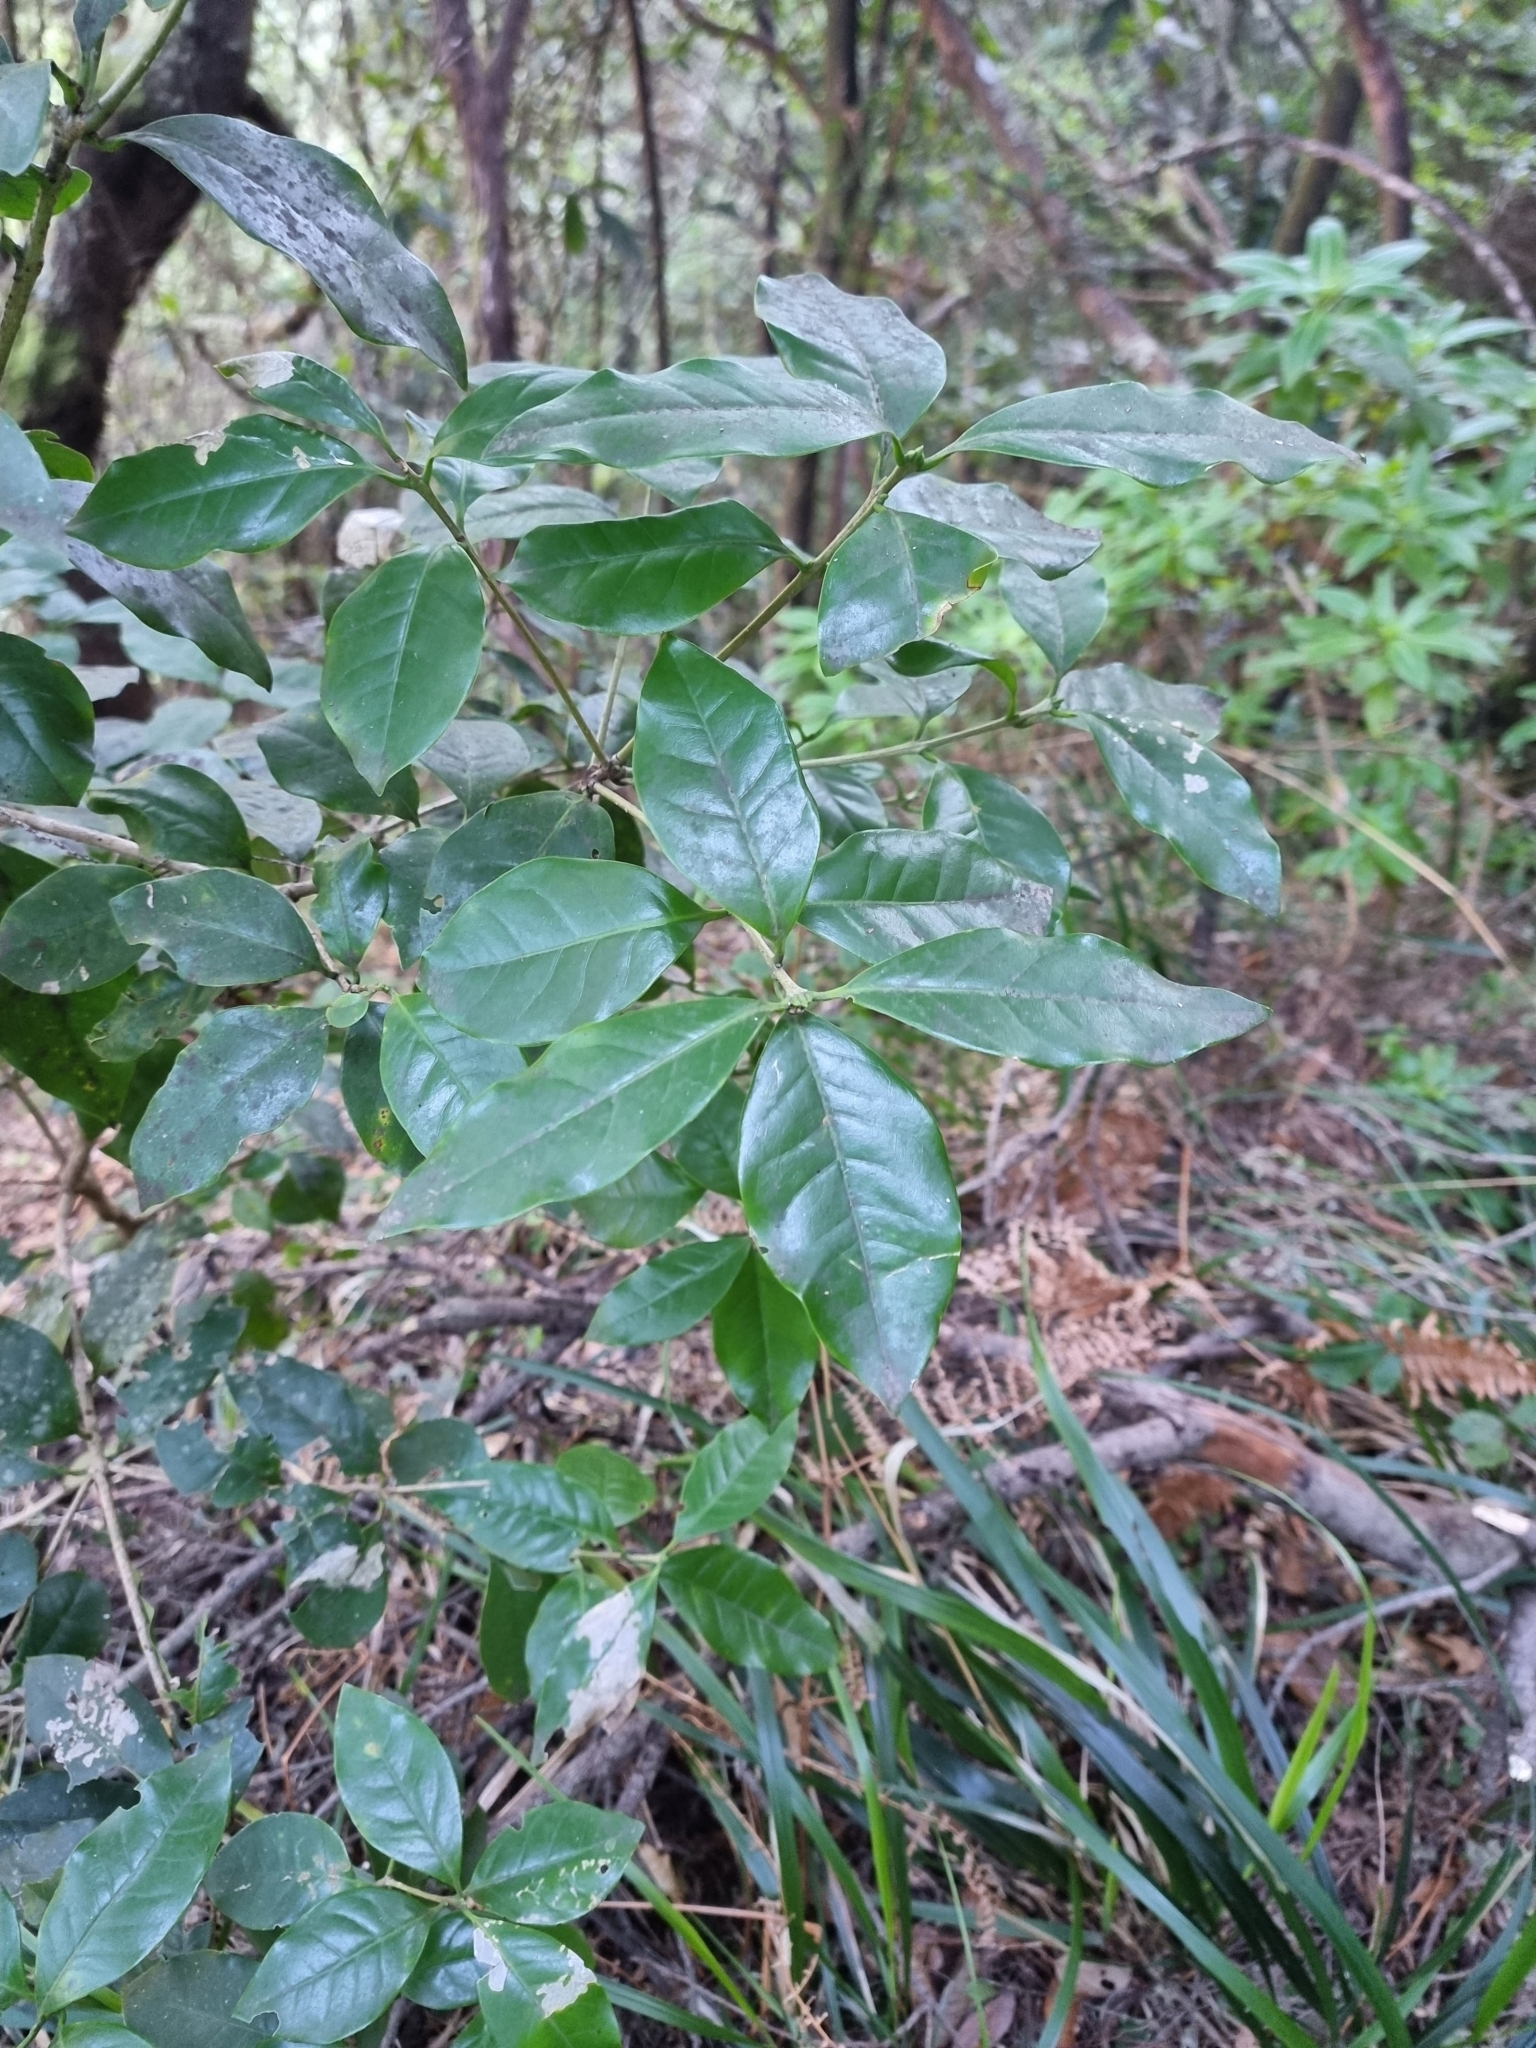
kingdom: Plantae
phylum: Tracheophyta
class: Magnoliopsida
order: Lamiales
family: Oleaceae
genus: Picconia
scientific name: Picconia excelsa
